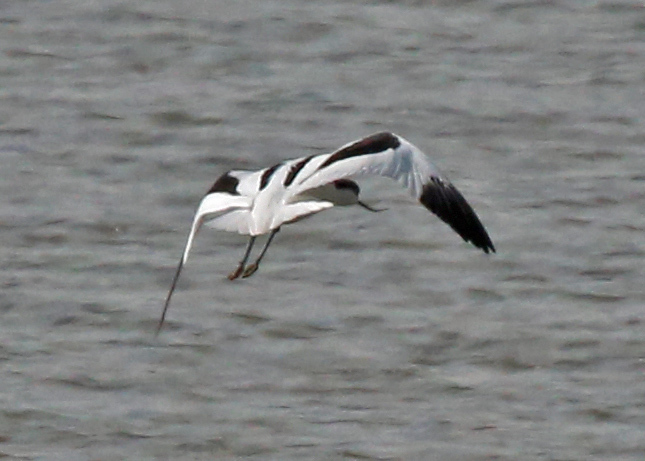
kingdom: Animalia
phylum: Chordata
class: Aves
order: Charadriiformes
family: Recurvirostridae
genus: Recurvirostra
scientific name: Recurvirostra avosetta
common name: Pied avocet
